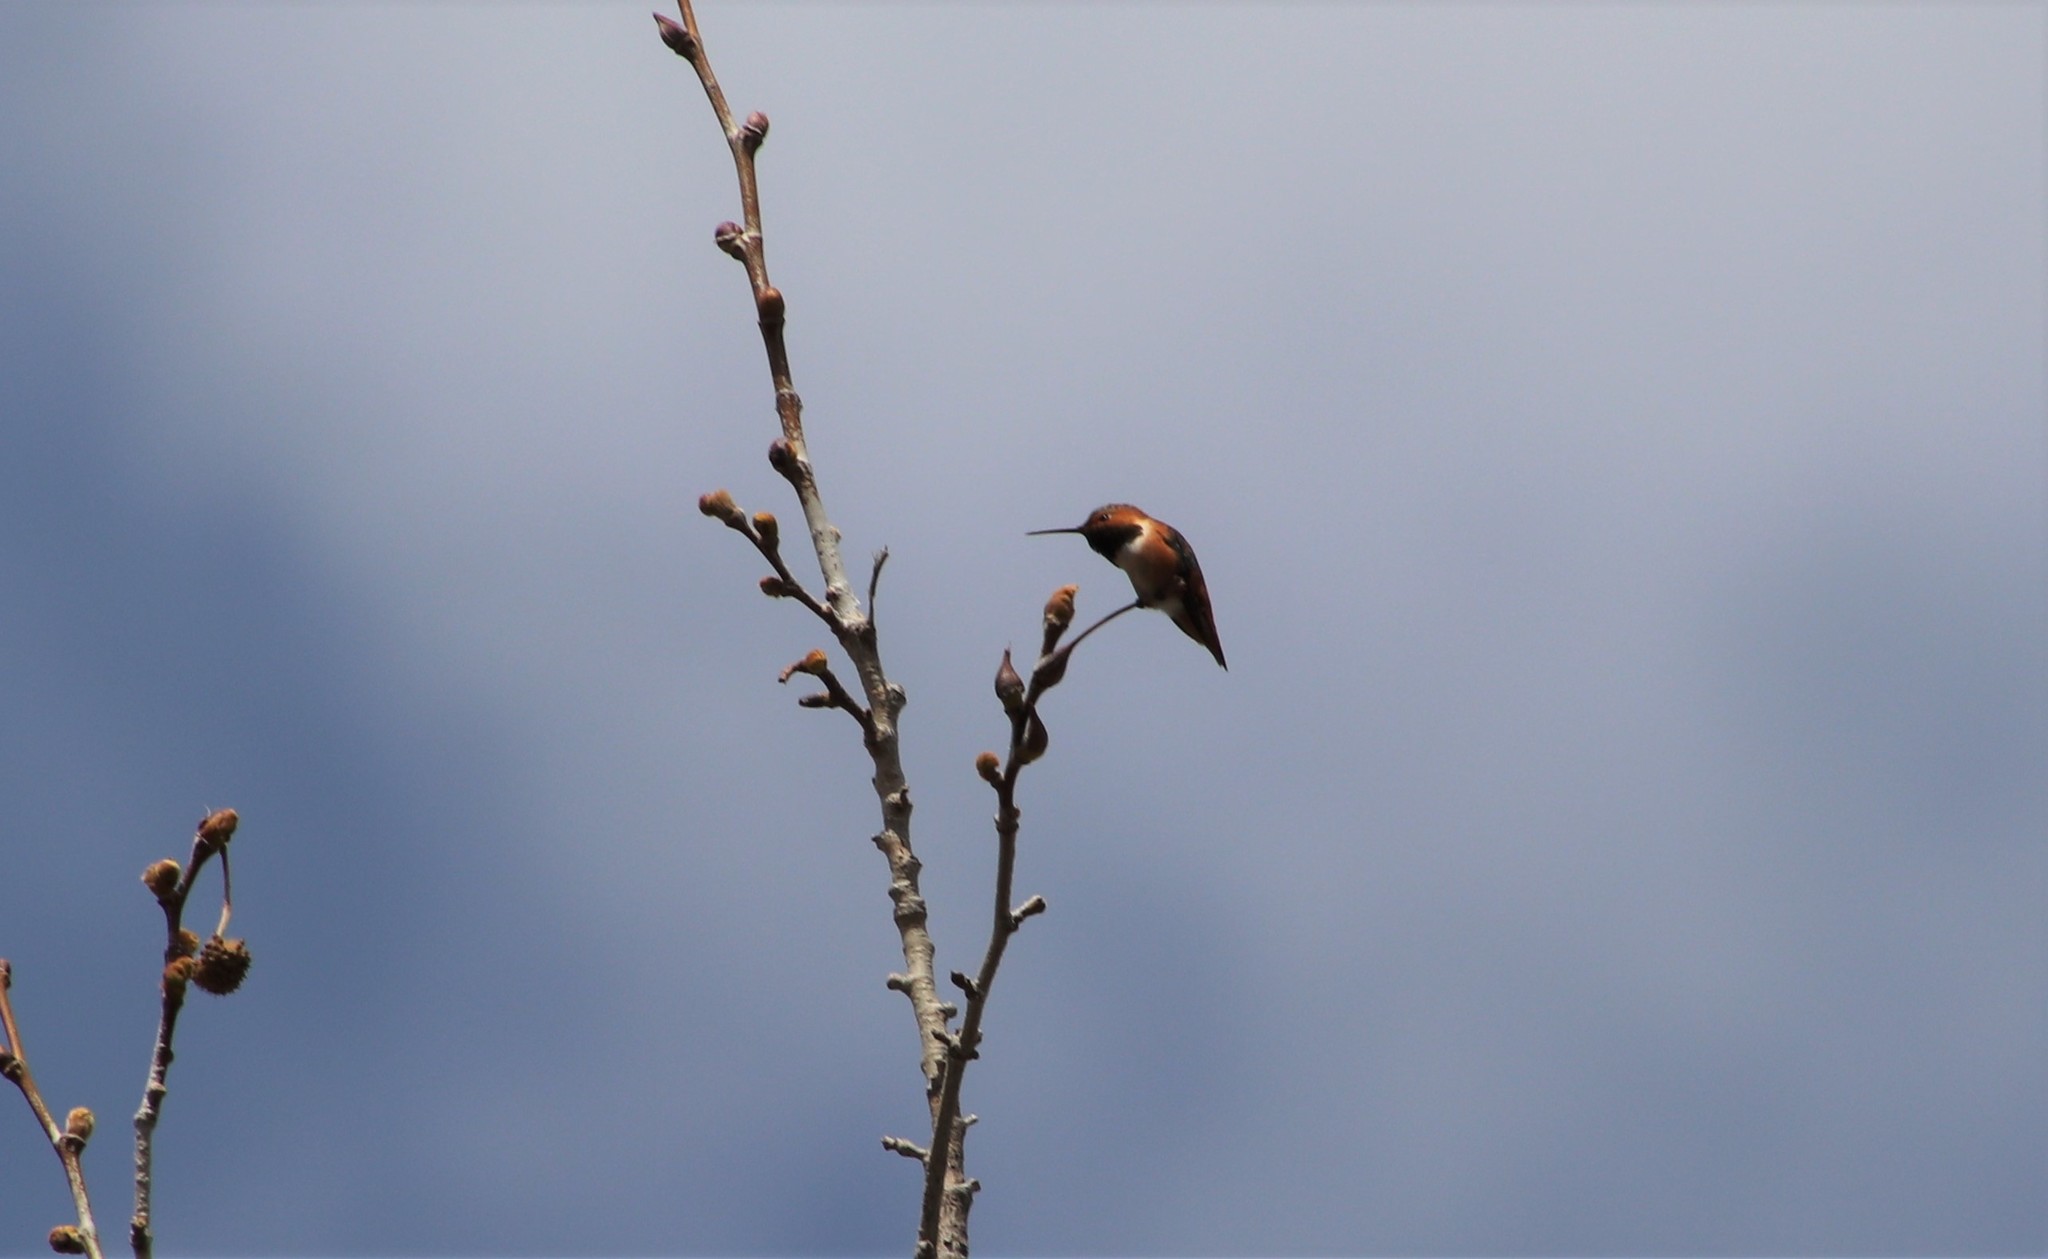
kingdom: Animalia
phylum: Chordata
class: Aves
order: Apodiformes
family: Trochilidae
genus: Selasphorus
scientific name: Selasphorus
